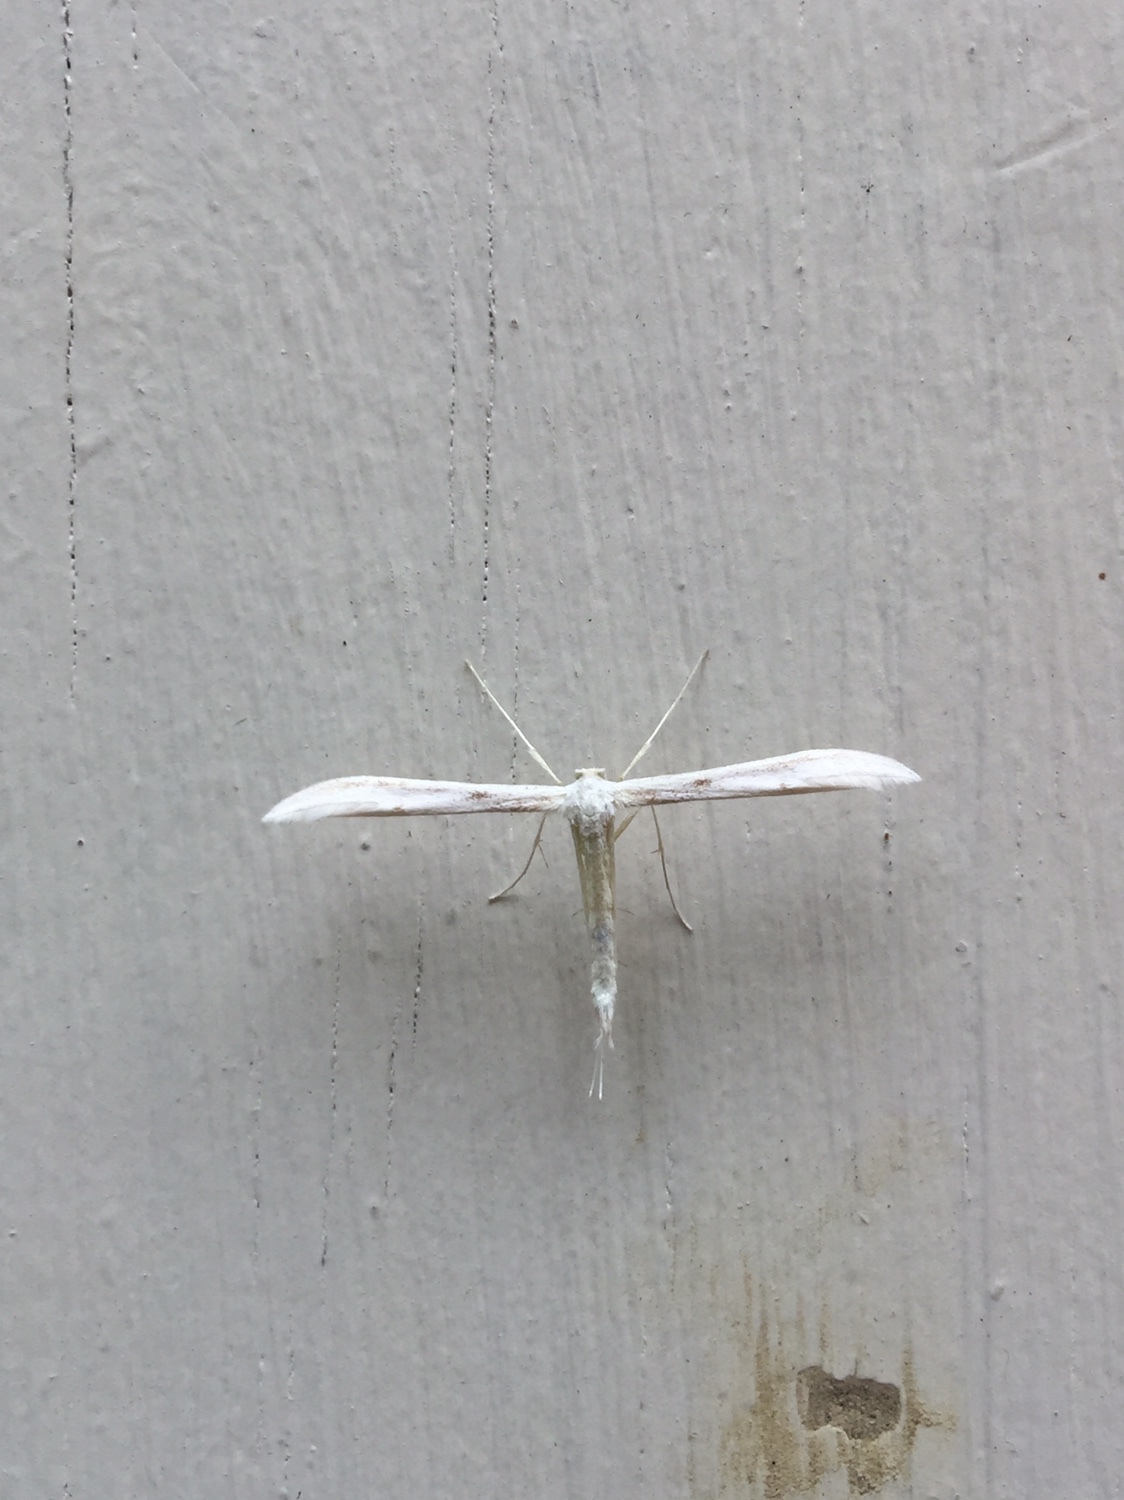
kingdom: Animalia
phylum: Arthropoda
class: Insecta
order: Lepidoptera
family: Pterophoridae
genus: Hellinsia
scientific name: Hellinsia homodactylus
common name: Plain plume moth
